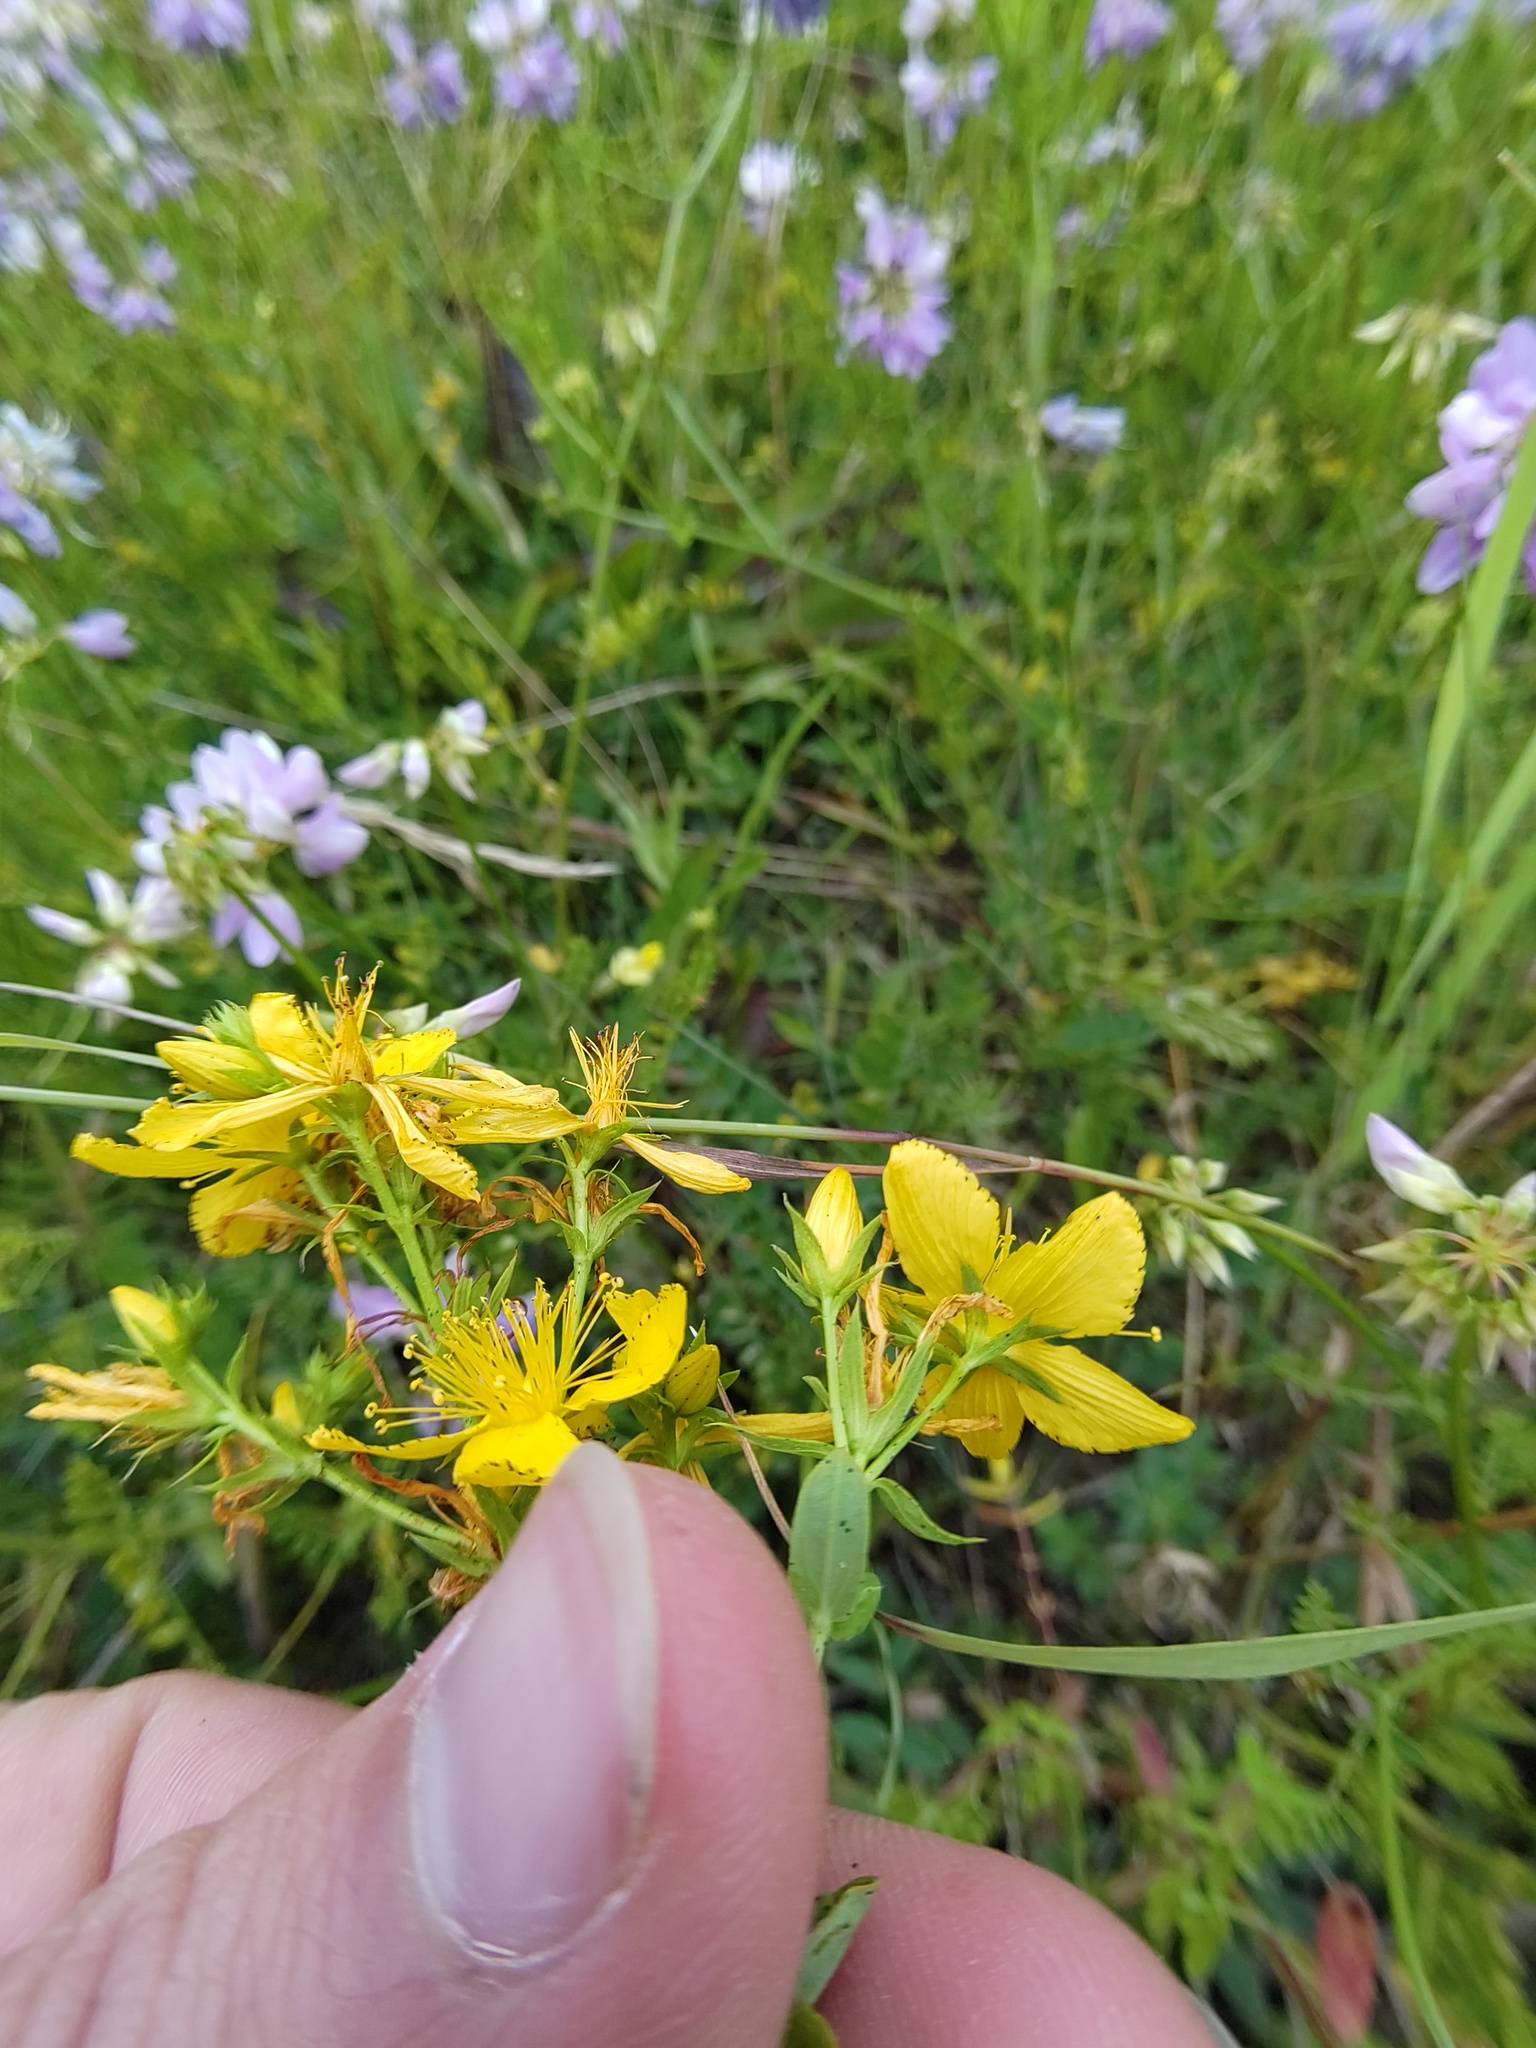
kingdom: Plantae
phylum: Tracheophyta
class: Magnoliopsida
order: Malpighiales
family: Hypericaceae
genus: Hypericum
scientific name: Hypericum perforatum
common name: Common st. johnswort
